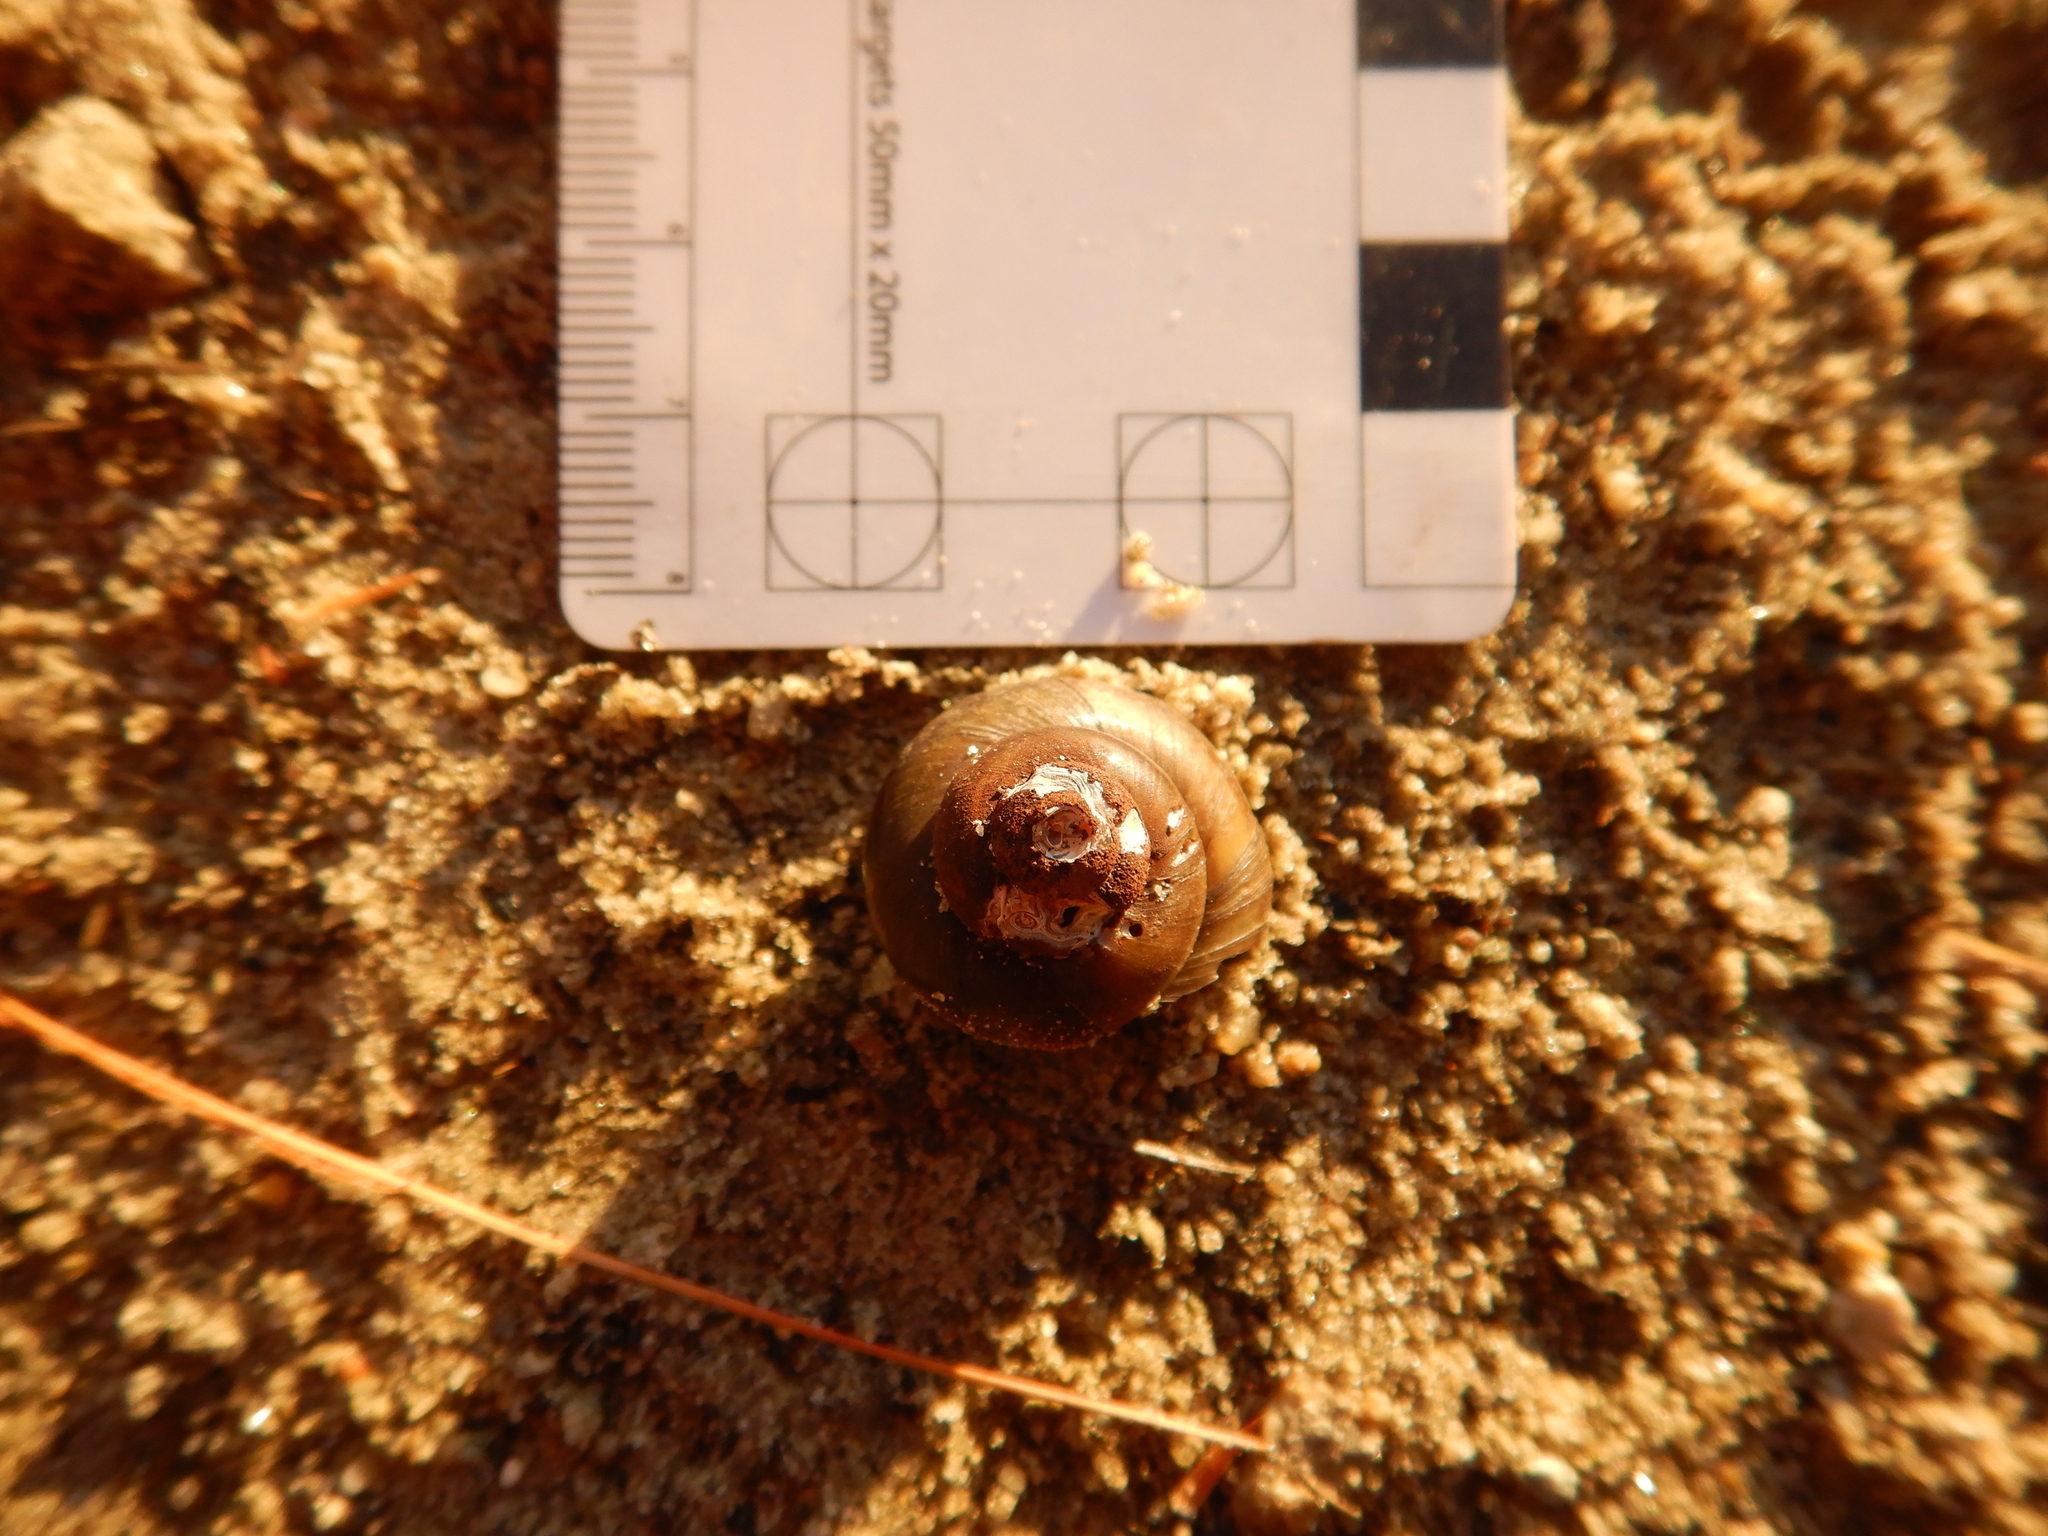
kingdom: Animalia
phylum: Mollusca
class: Gastropoda
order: Architaenioglossa
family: Viviparidae
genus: Callinina
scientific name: Callinina georgiana
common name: Banded mystery snail
